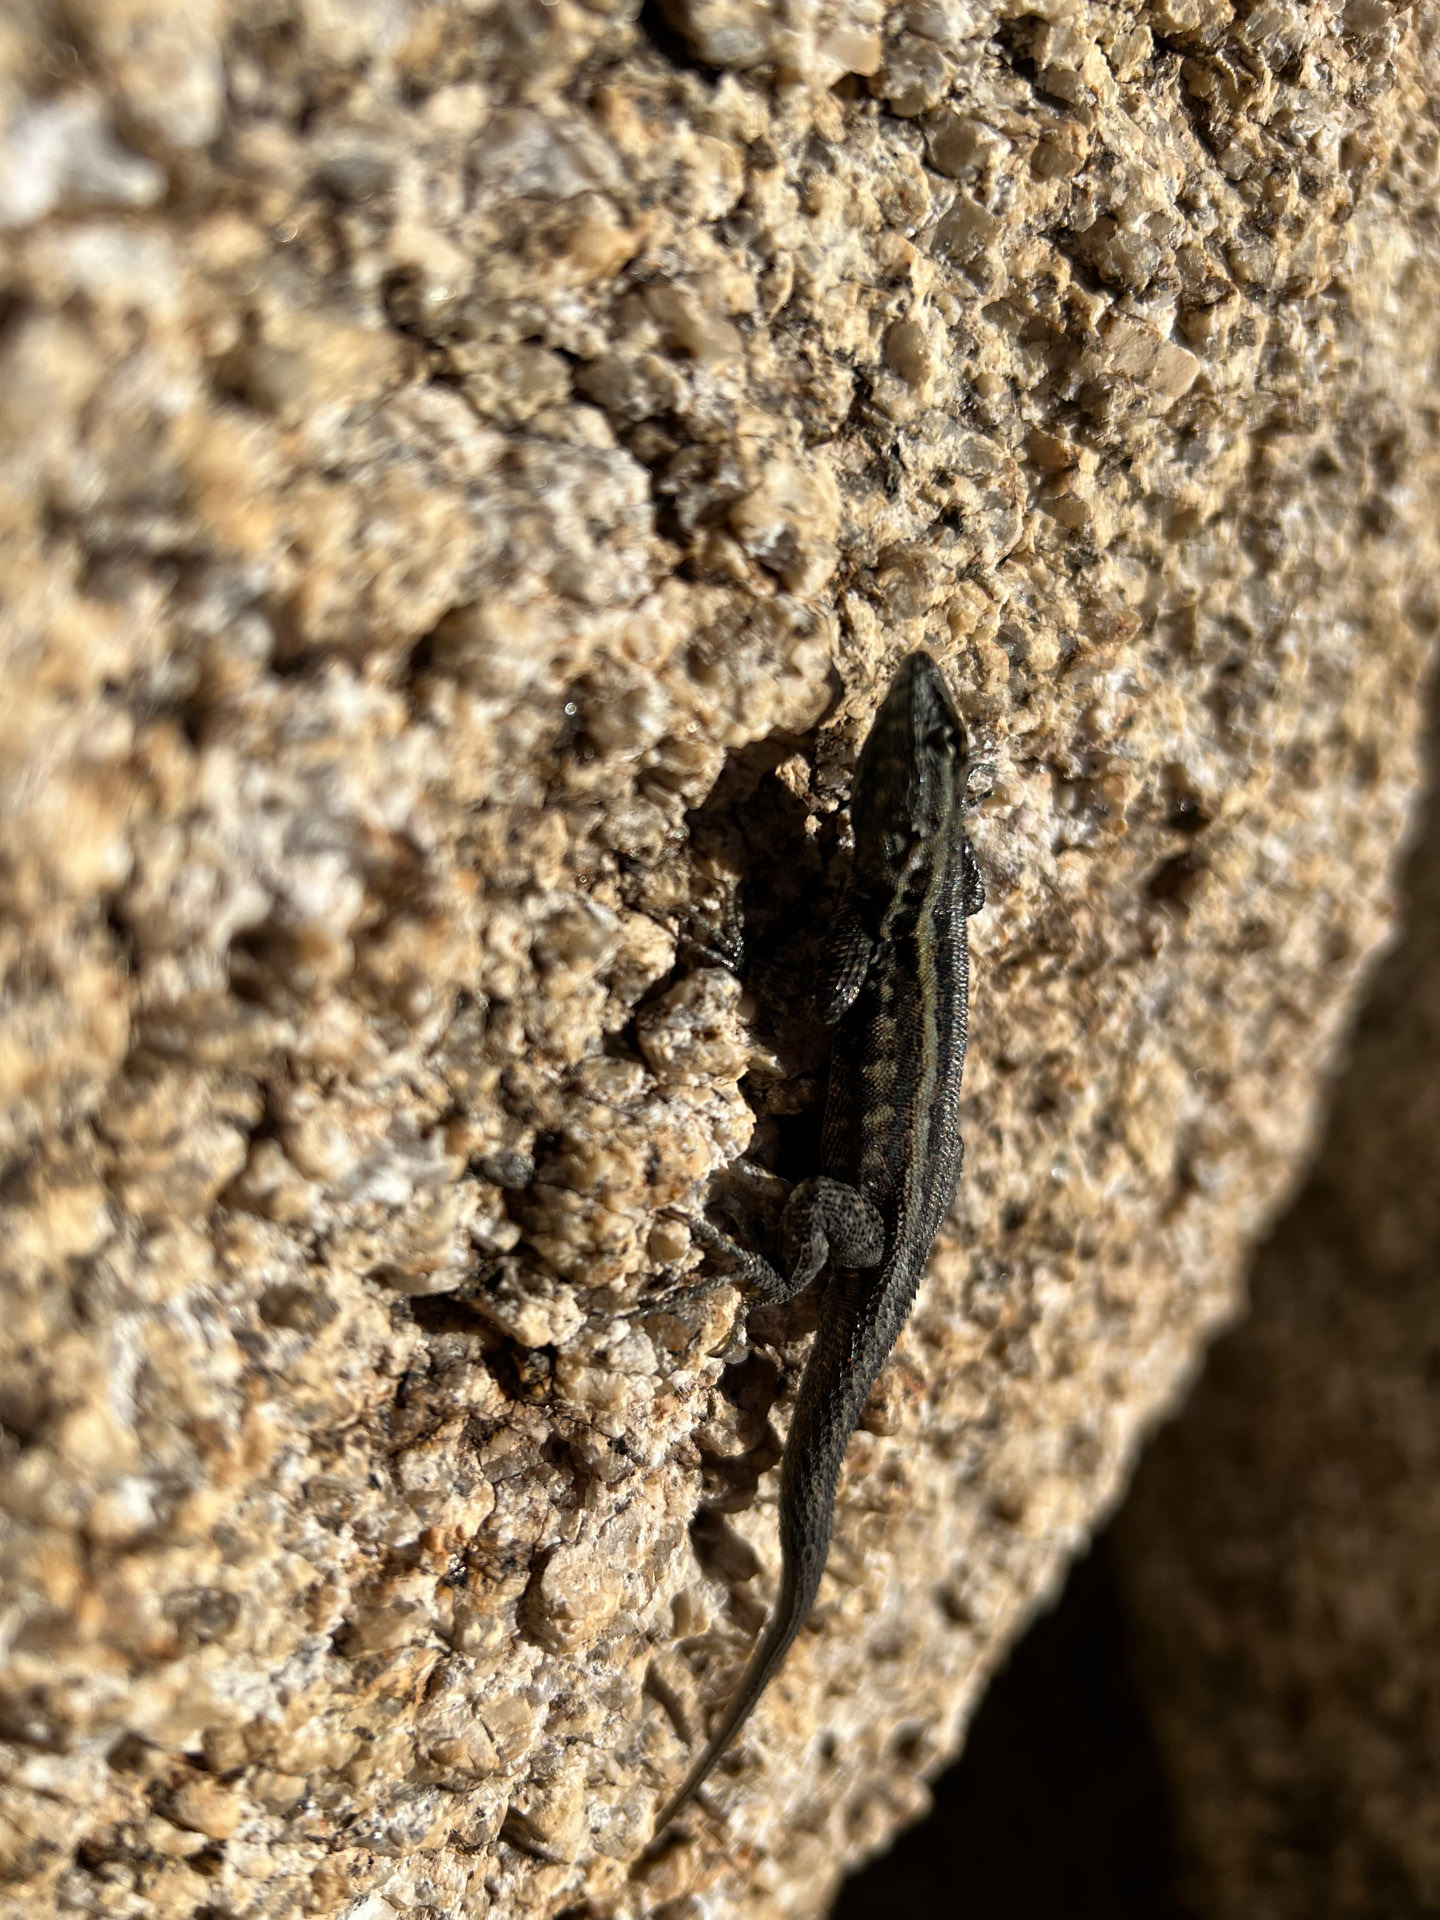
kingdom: Animalia
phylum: Chordata
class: Squamata
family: Phrynosomatidae
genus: Uta
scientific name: Uta stansburiana
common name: Side-blotched lizard
